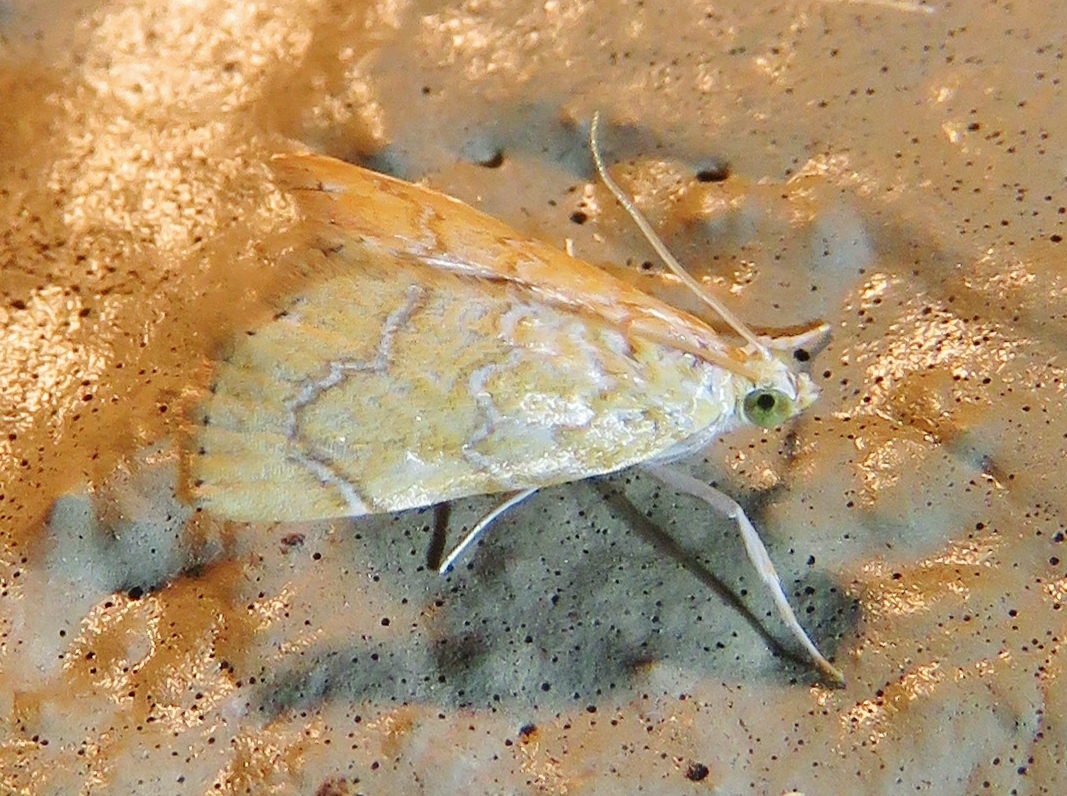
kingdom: Animalia
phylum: Arthropoda
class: Insecta
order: Lepidoptera
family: Crambidae
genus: Glaphyria
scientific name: Glaphyria sesquistrialis
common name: White-roped glaphyria
